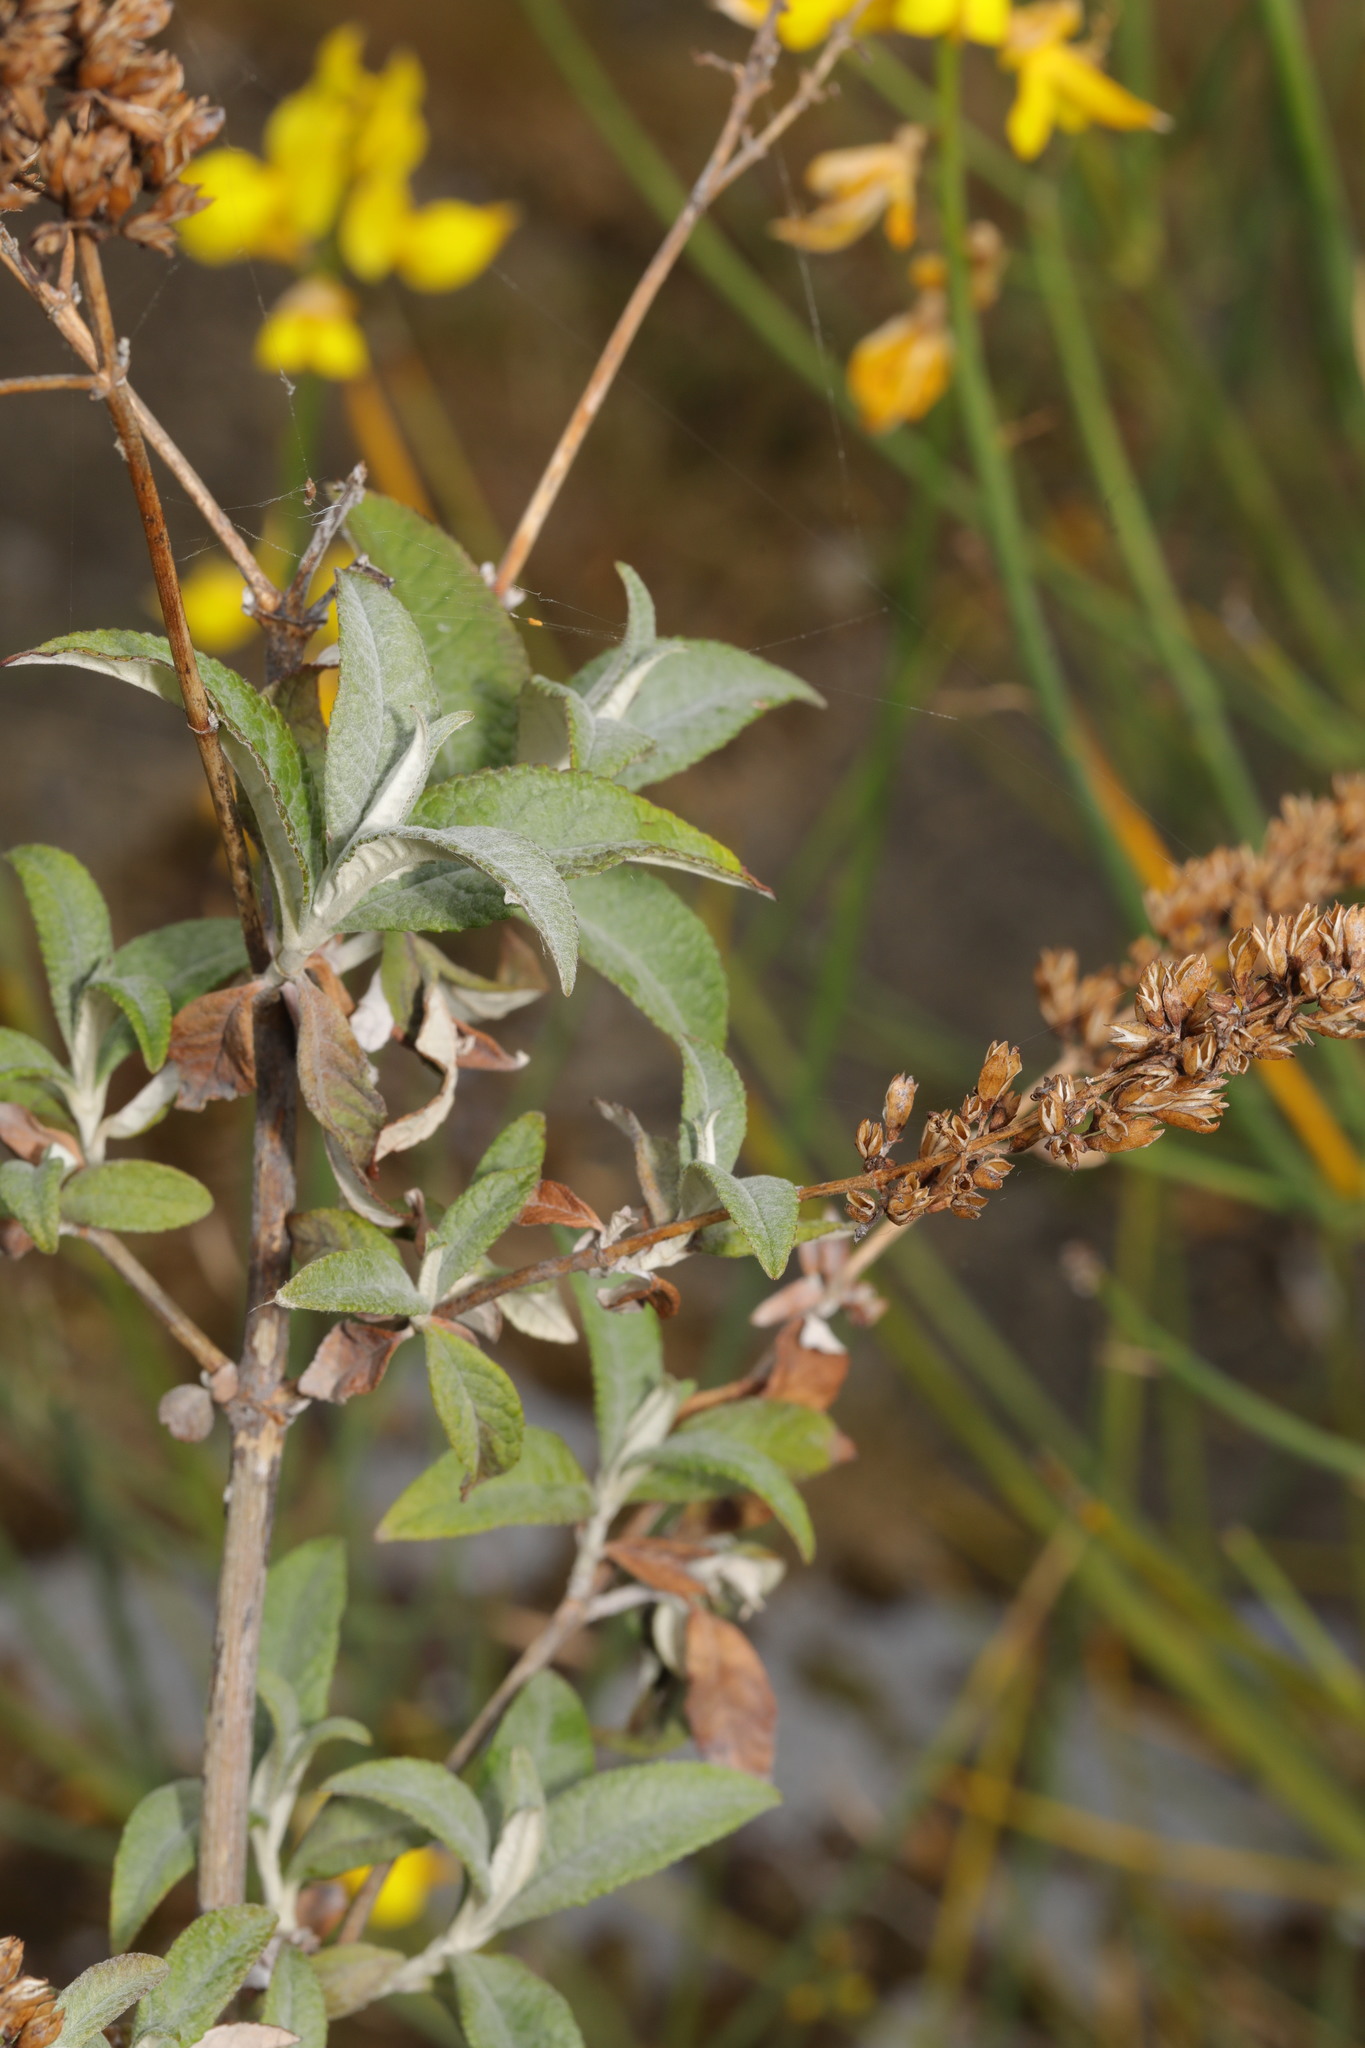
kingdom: Plantae
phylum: Tracheophyta
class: Magnoliopsida
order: Lamiales
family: Scrophulariaceae
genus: Buddleja
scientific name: Buddleja davidii
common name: Butterfly-bush
